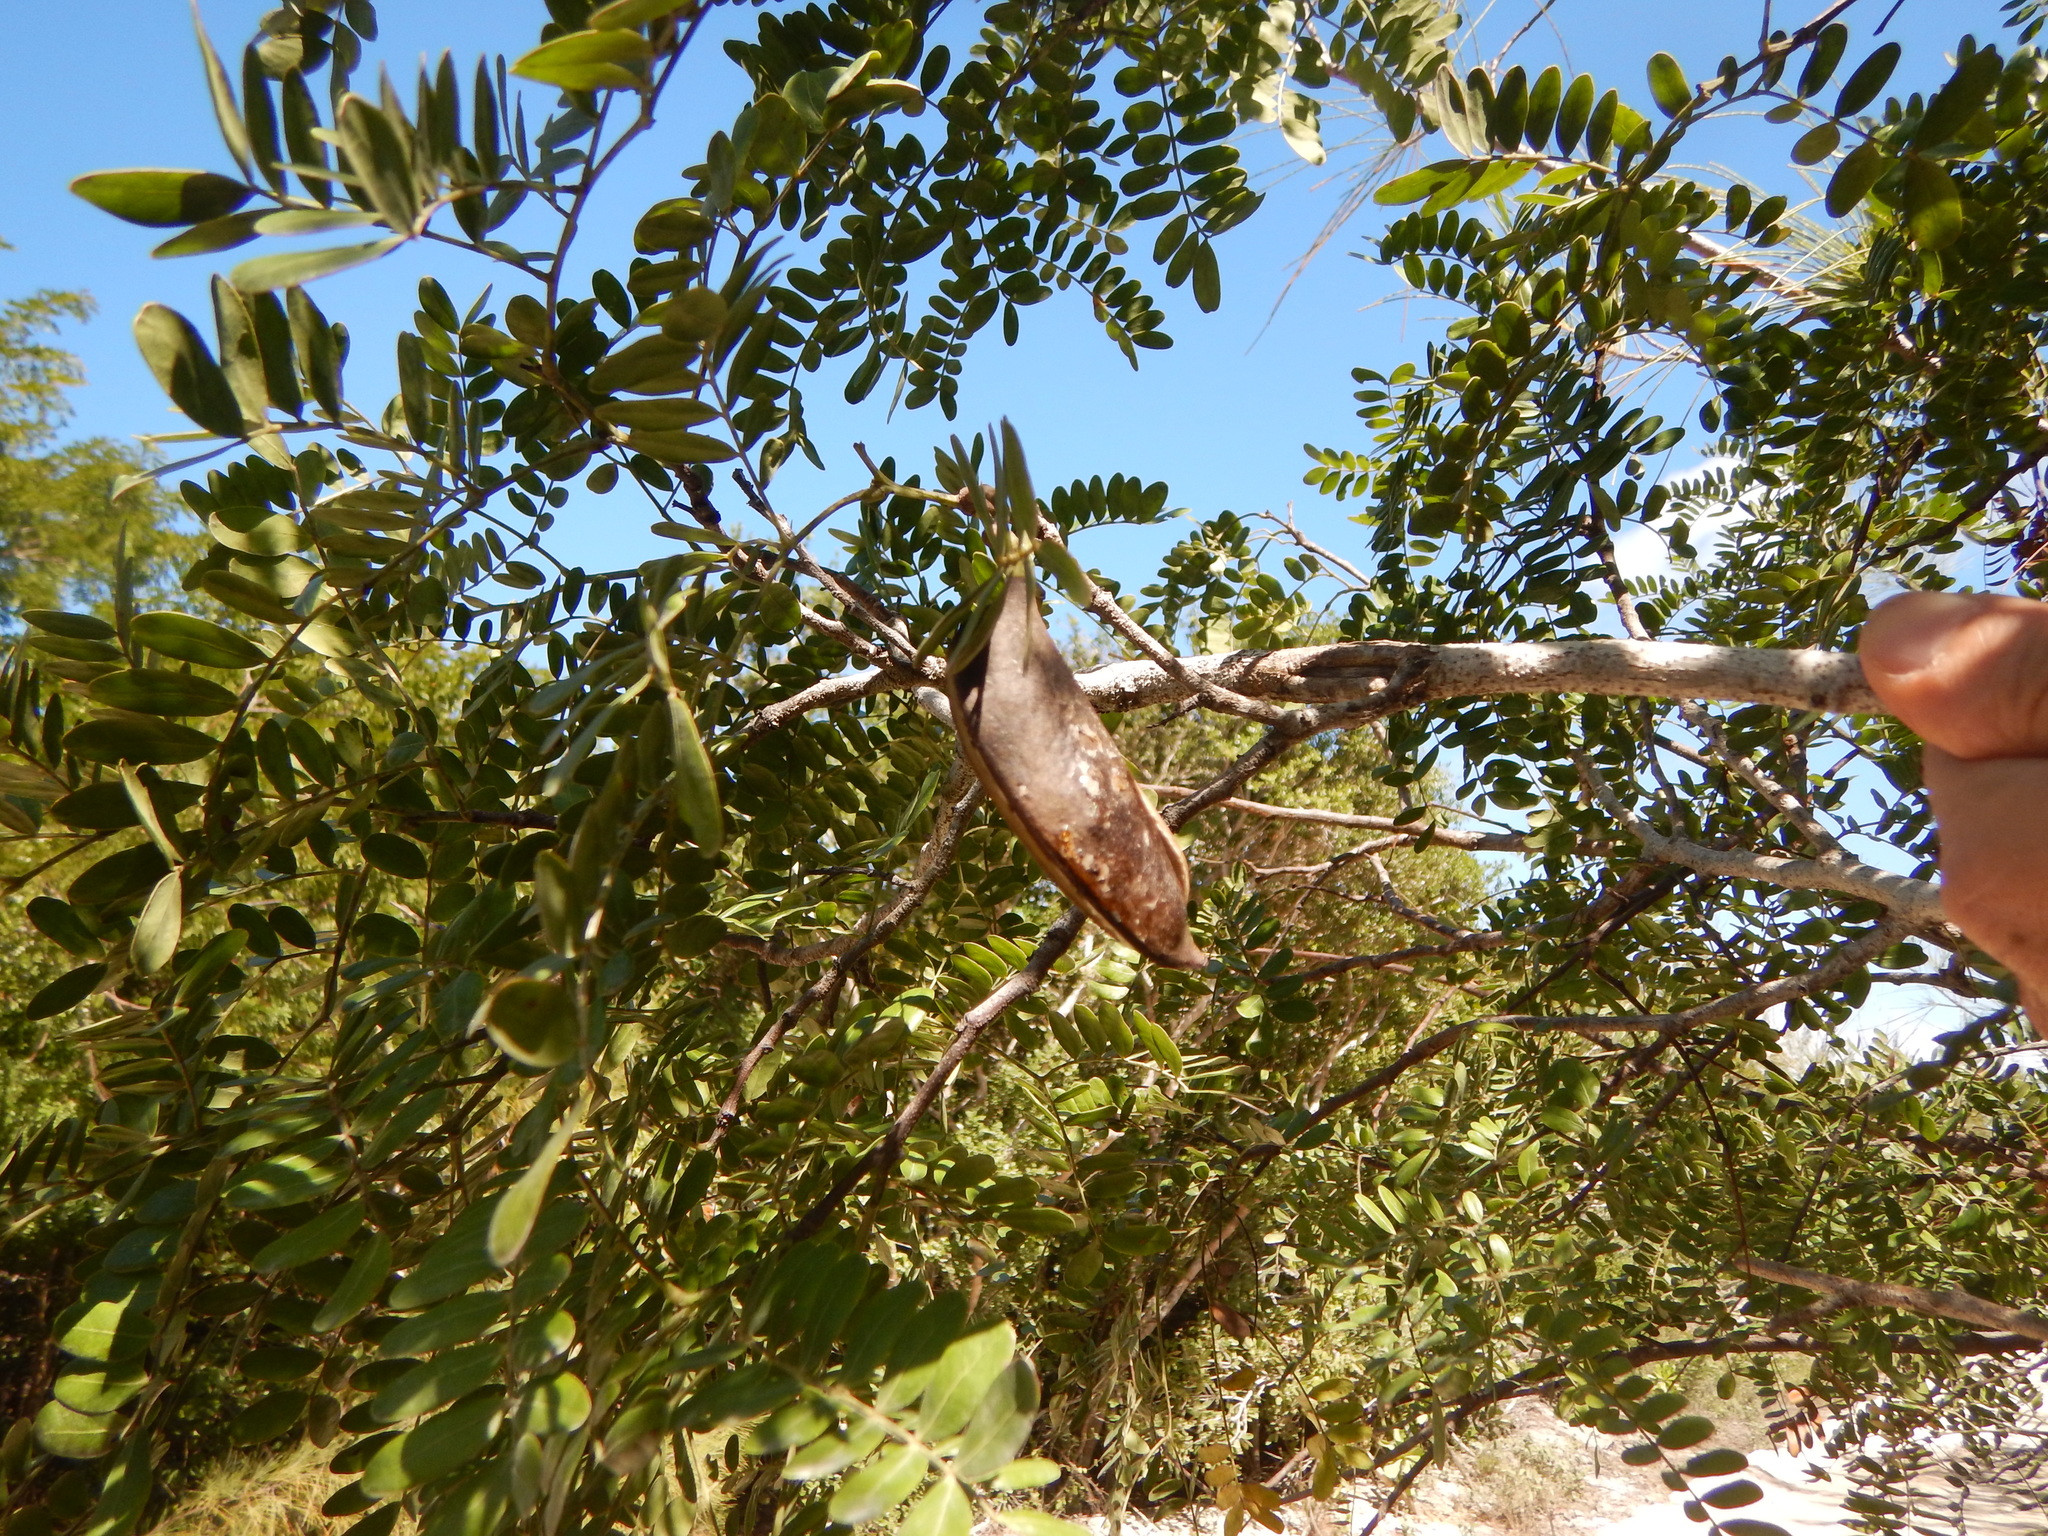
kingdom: Plantae
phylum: Tracheophyta
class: Magnoliopsida
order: Fabales
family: Fabaceae
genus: Vachellia
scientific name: Vachellia choriophylla
